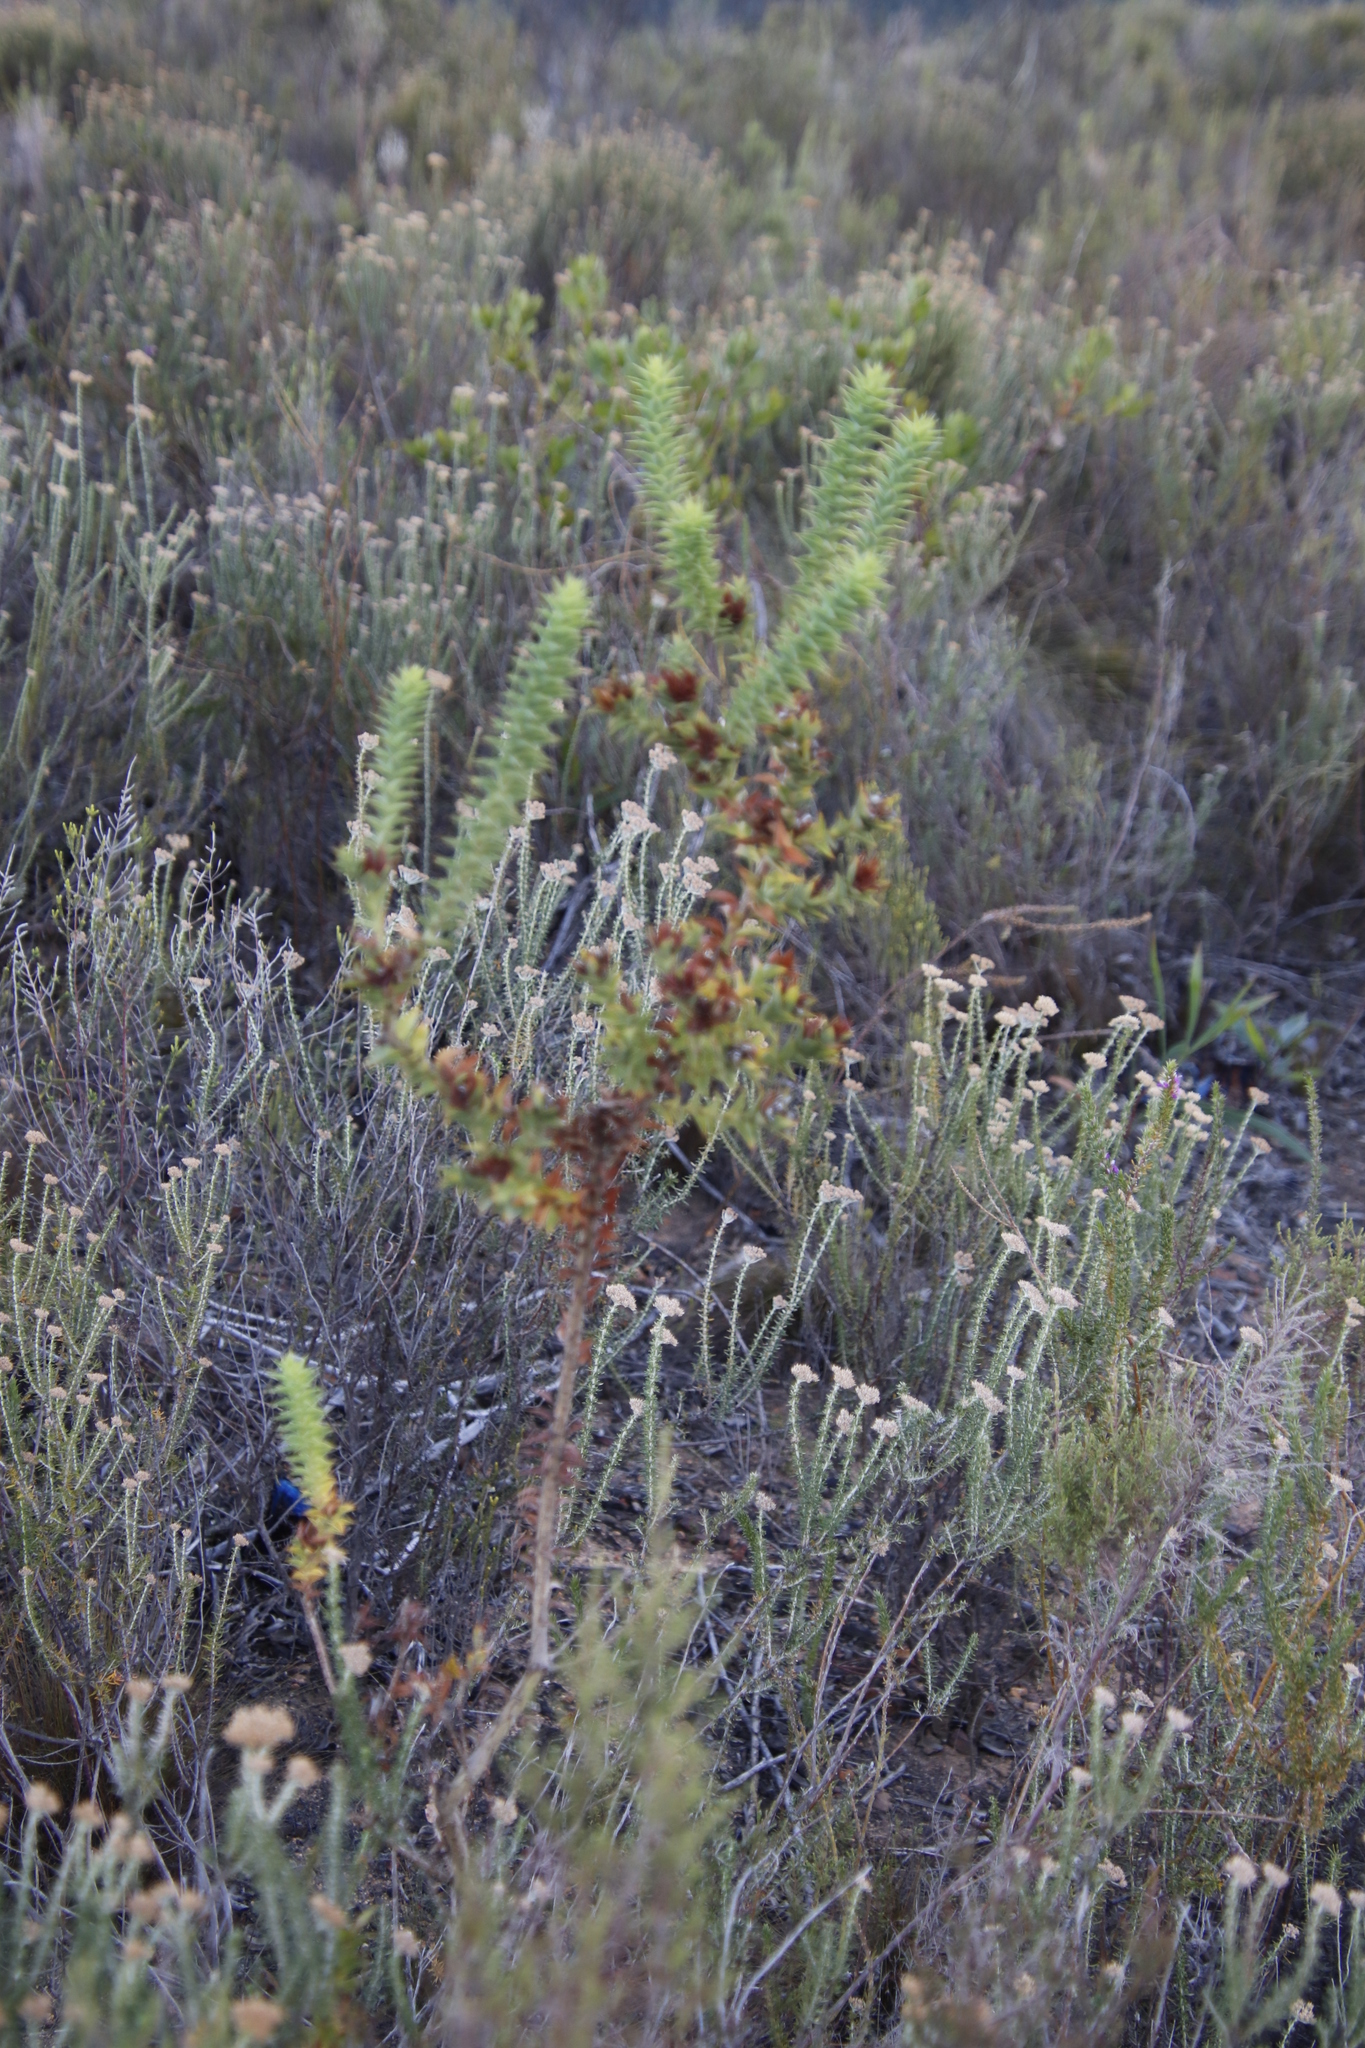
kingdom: Plantae
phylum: Tracheophyta
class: Magnoliopsida
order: Fabales
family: Fabaceae
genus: Aspalathus
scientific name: Aspalathus cordata
